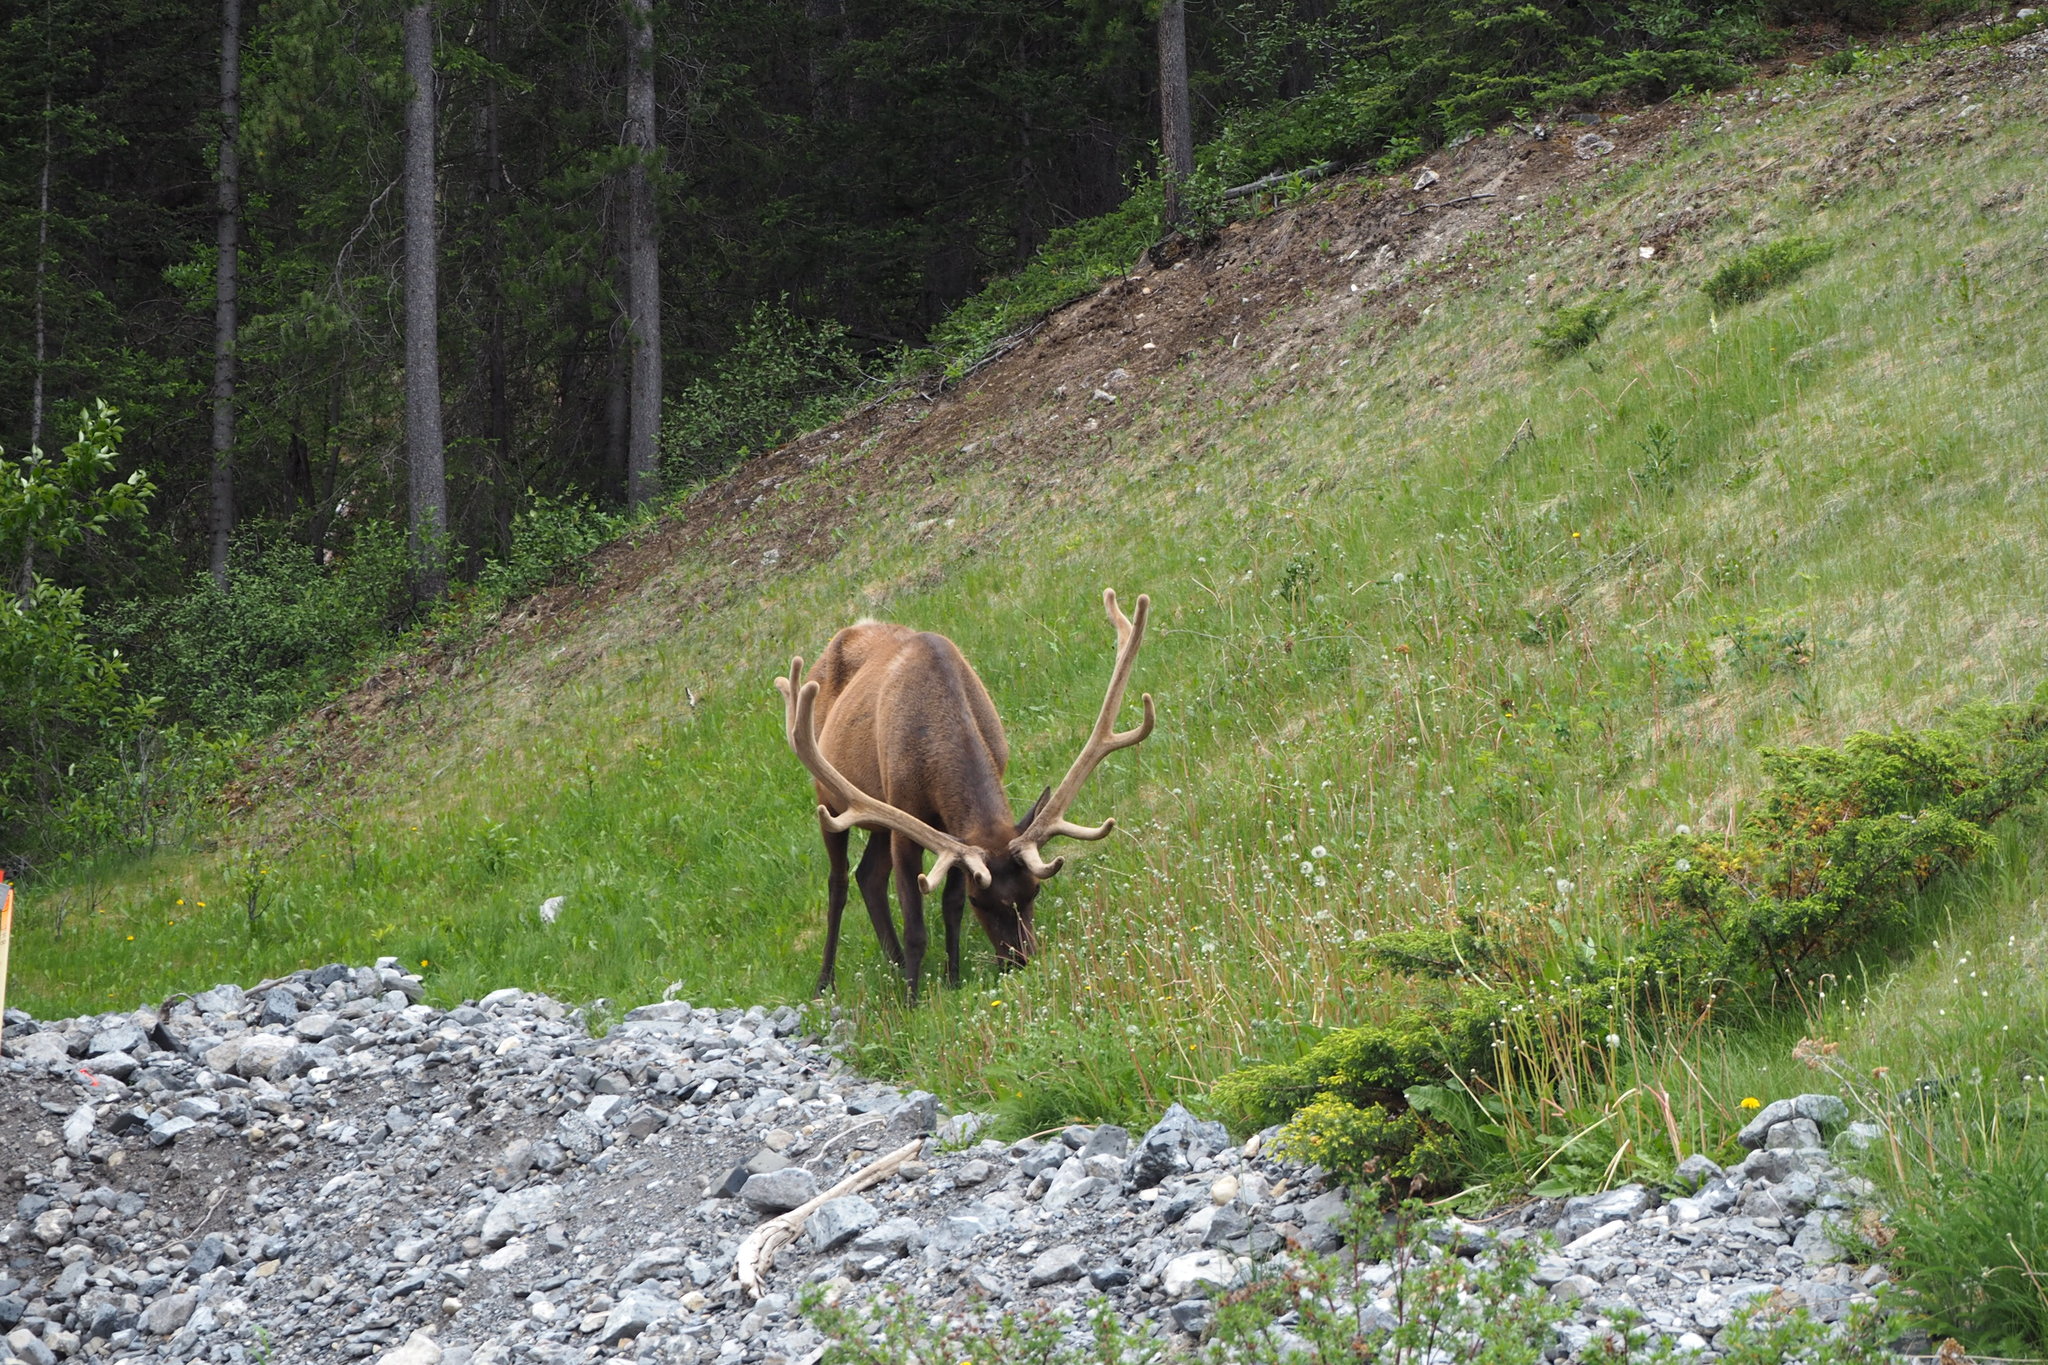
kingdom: Animalia
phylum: Chordata
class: Mammalia
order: Artiodactyla
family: Cervidae
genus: Cervus
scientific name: Cervus elaphus
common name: Red deer
